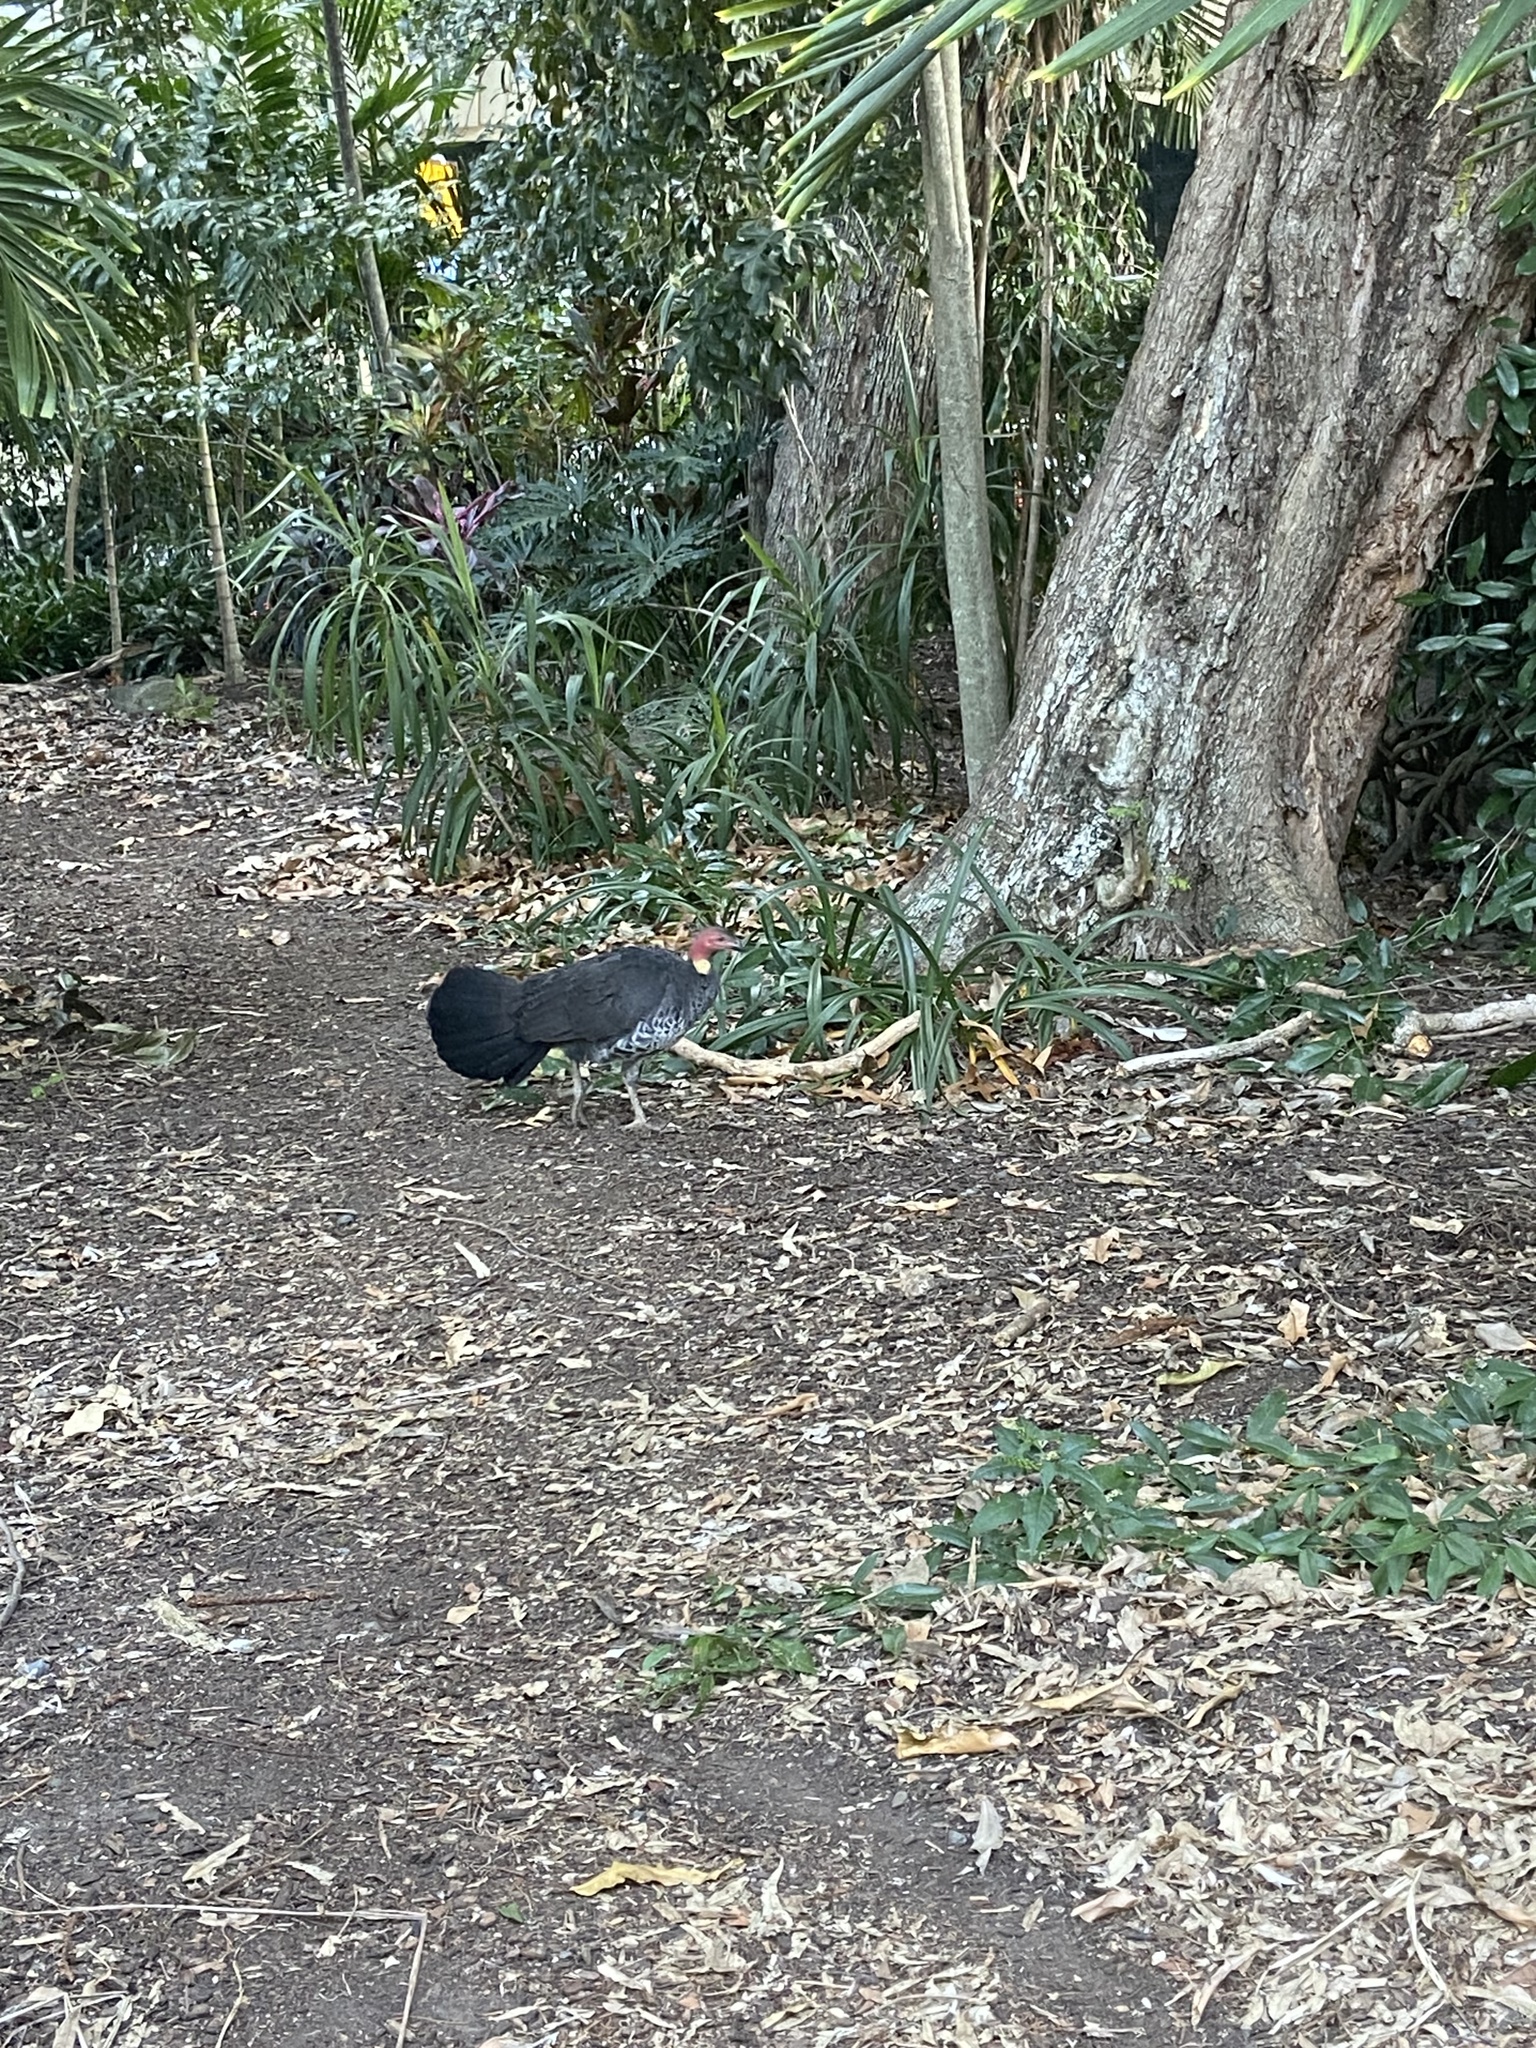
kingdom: Animalia
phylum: Chordata
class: Aves
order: Galliformes
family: Megapodiidae
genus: Alectura
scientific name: Alectura lathami
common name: Australian brushturkey
